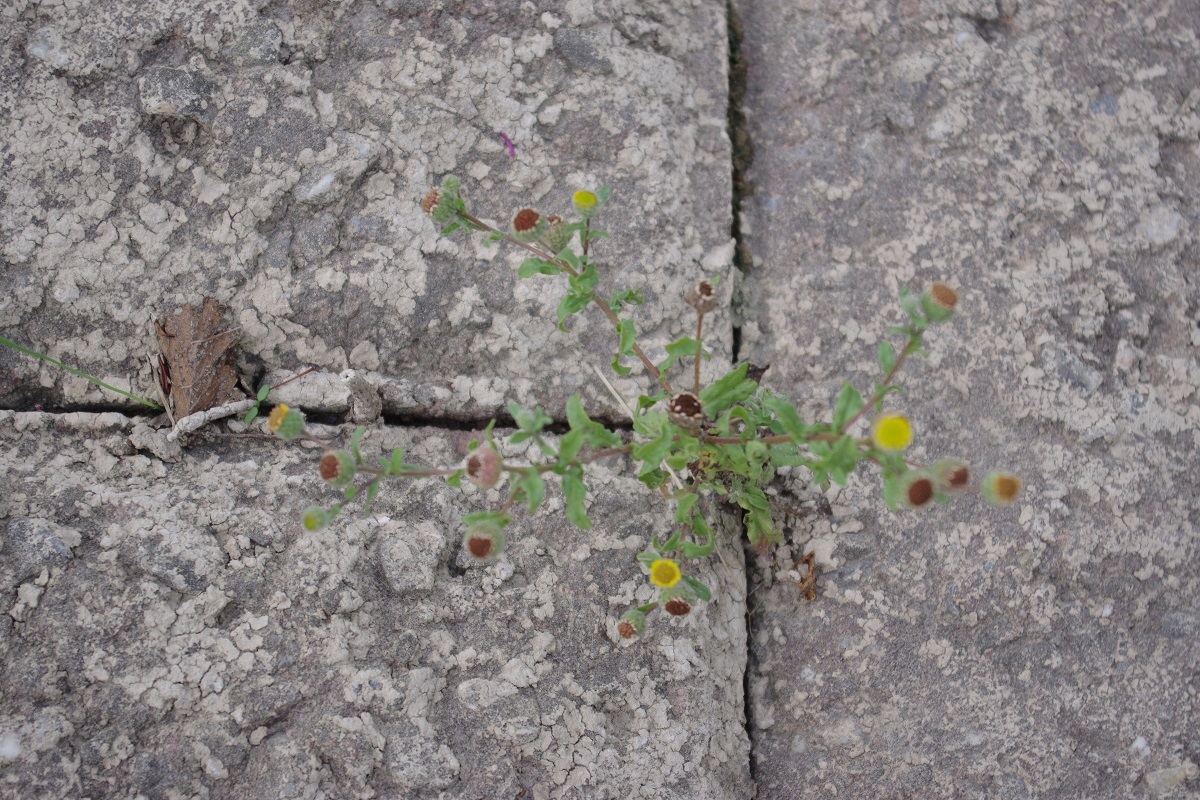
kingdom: Plantae
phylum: Tracheophyta
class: Magnoliopsida
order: Asterales
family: Asteraceae
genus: Pulicaria
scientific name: Pulicaria vulgaris
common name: Small fleabane
